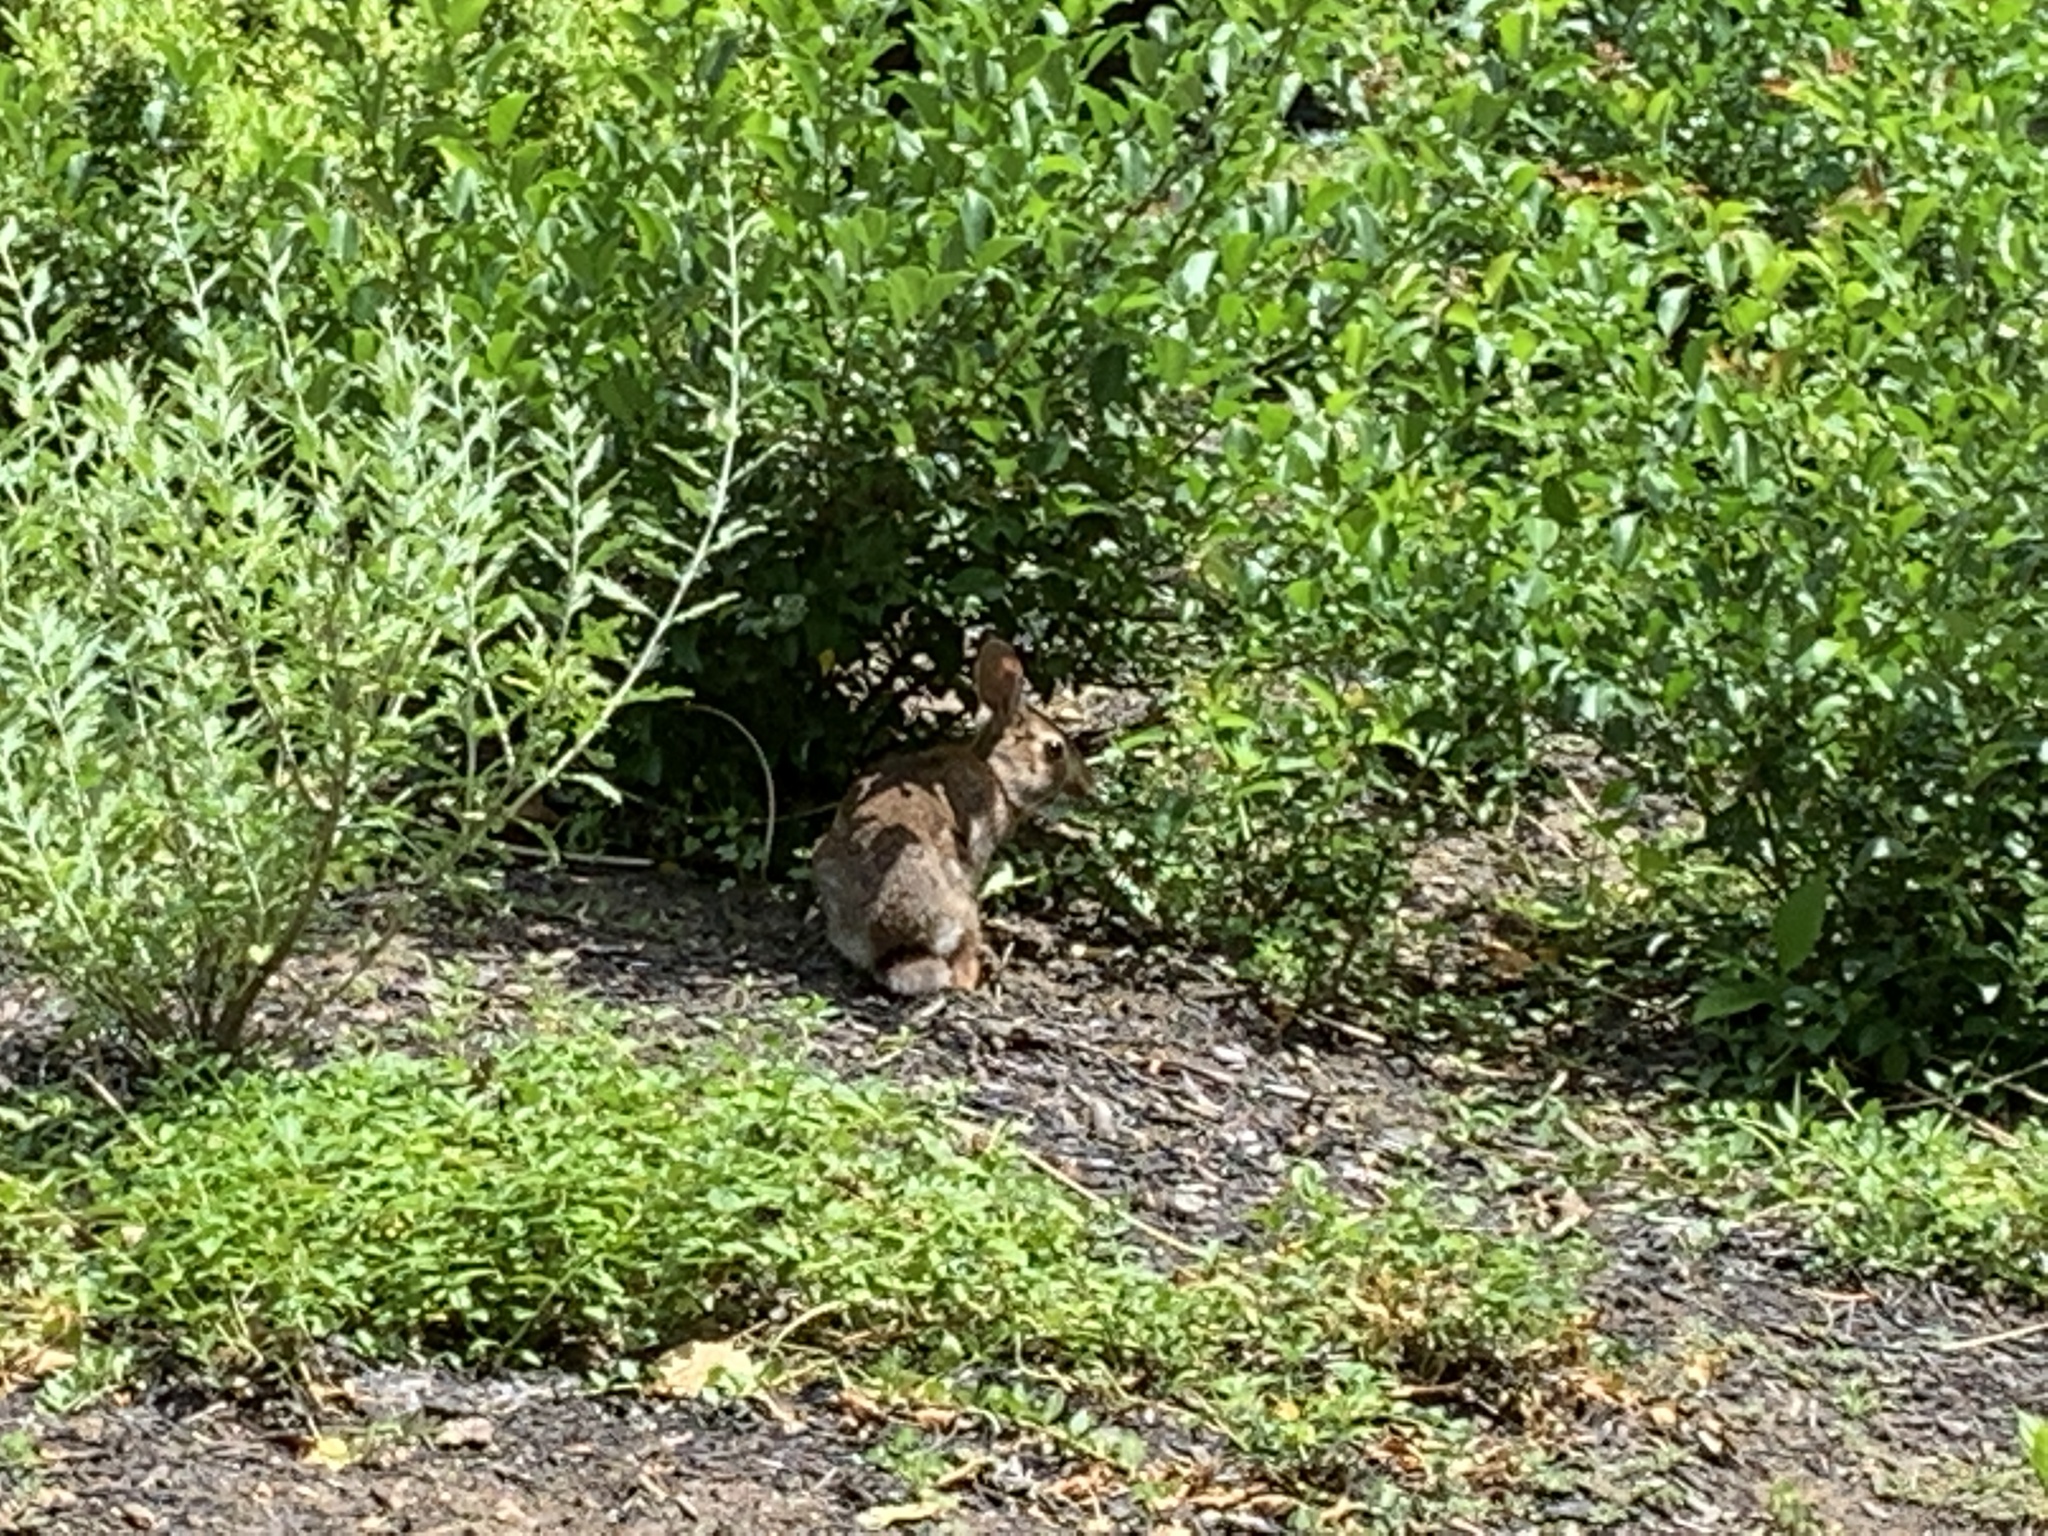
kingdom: Animalia
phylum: Chordata
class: Mammalia
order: Lagomorpha
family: Leporidae
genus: Sylvilagus
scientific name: Sylvilagus floridanus
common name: Eastern cottontail
